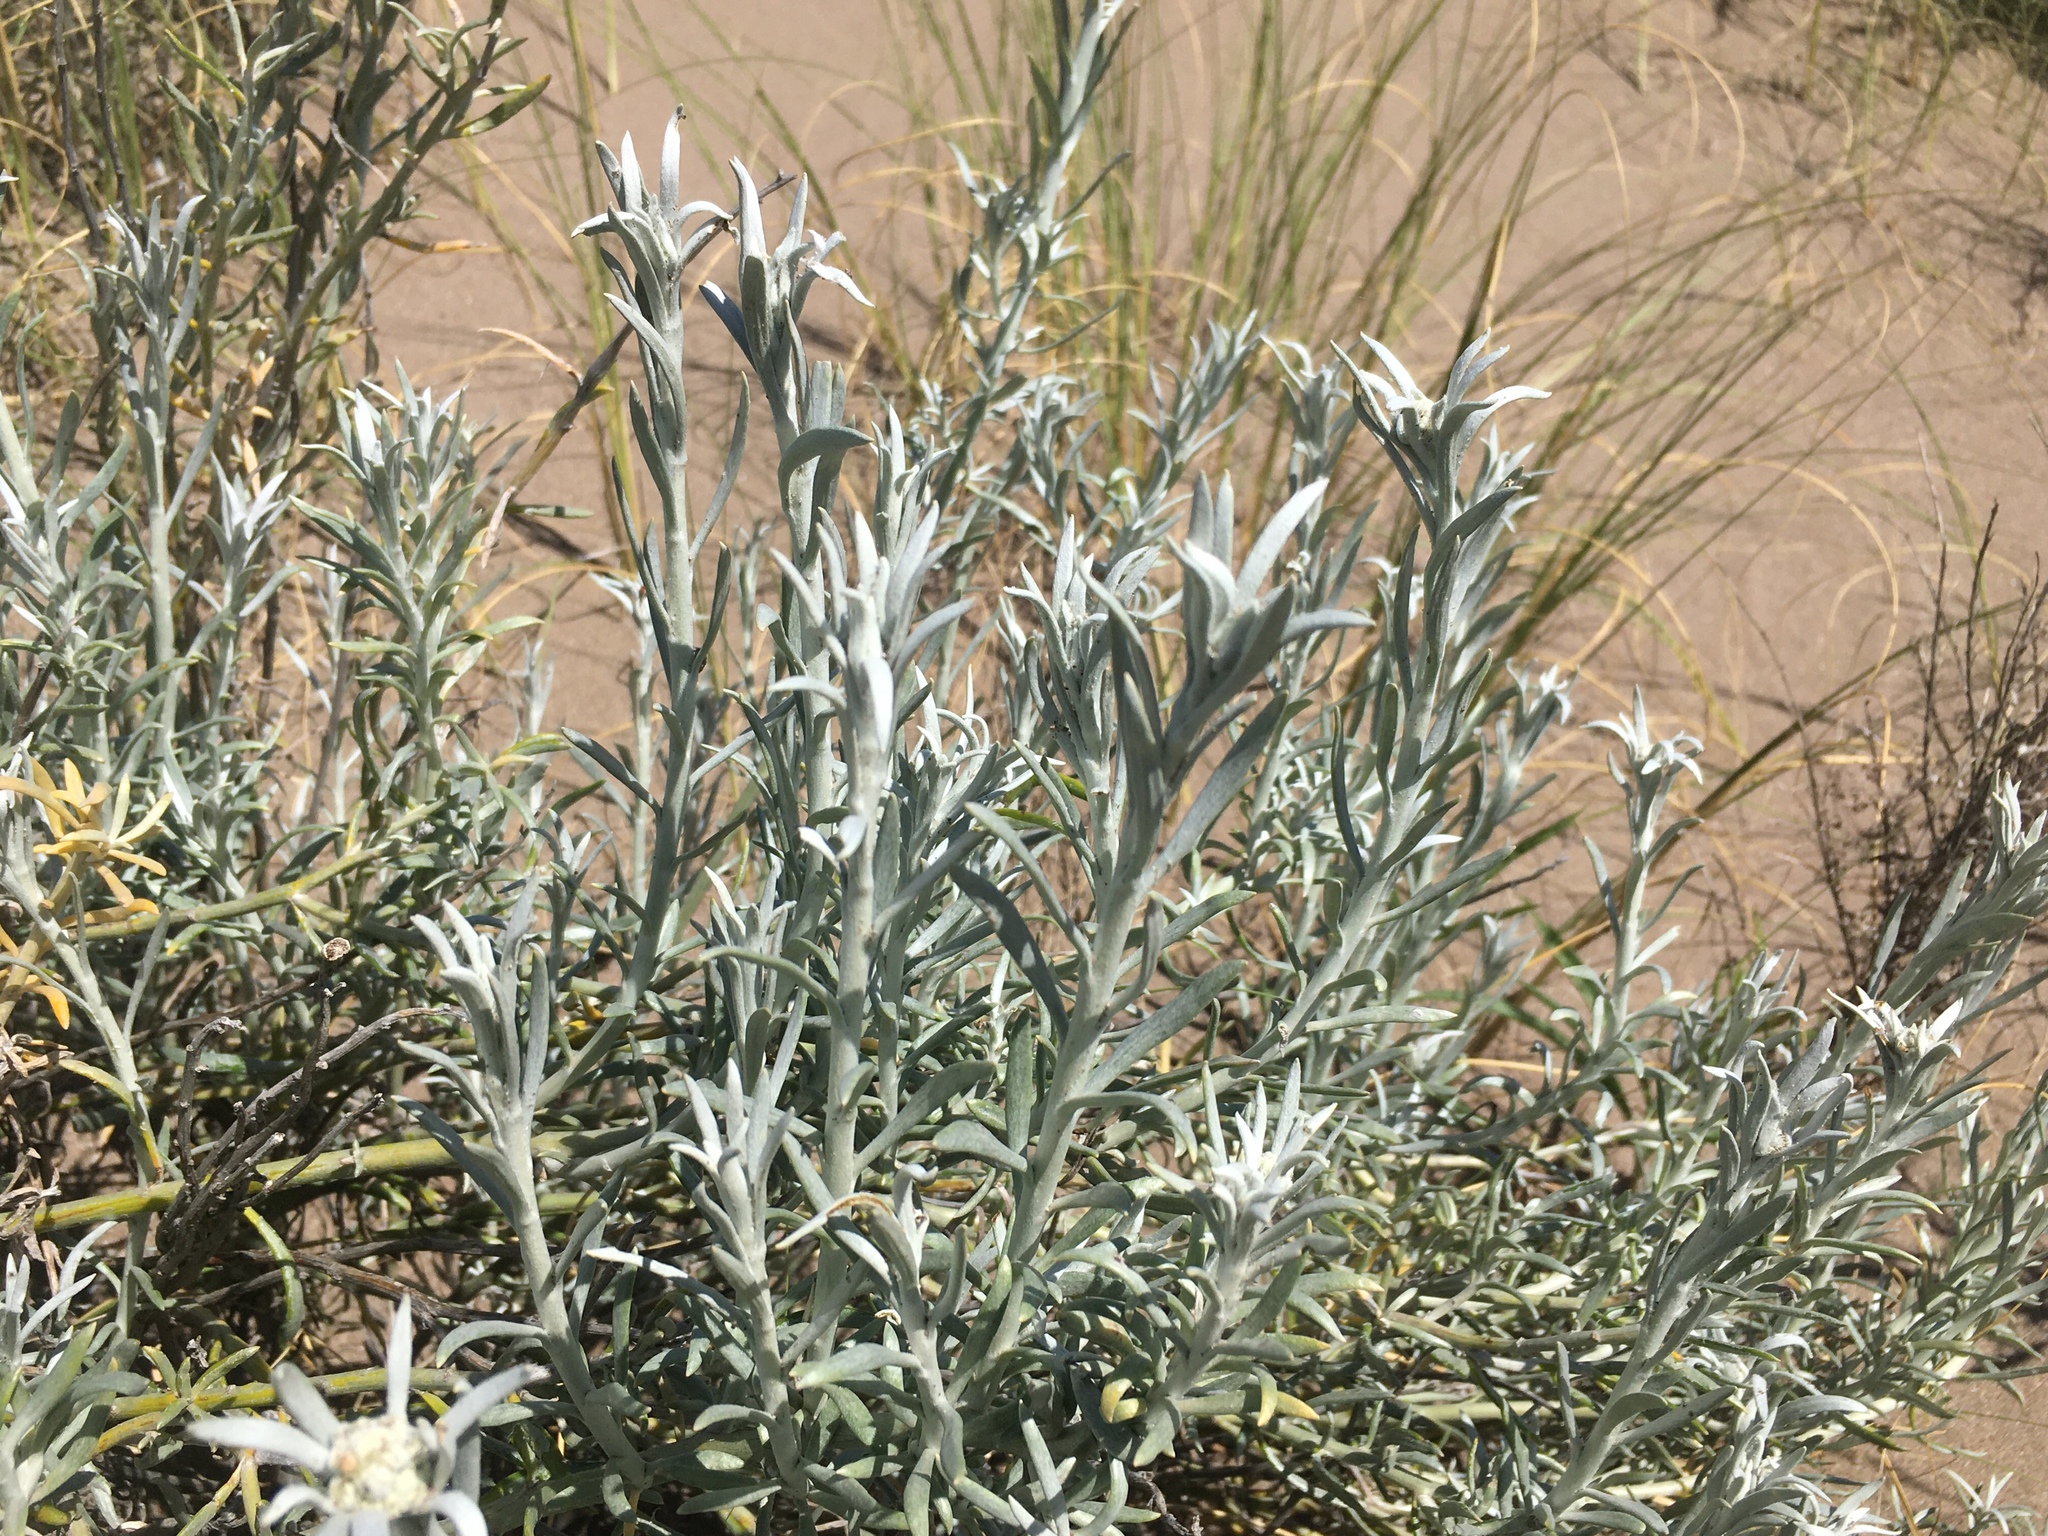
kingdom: Plantae
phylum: Tracheophyta
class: Magnoliopsida
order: Asterales
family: Asteraceae
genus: Senecio
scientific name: Senecio filaginoides
